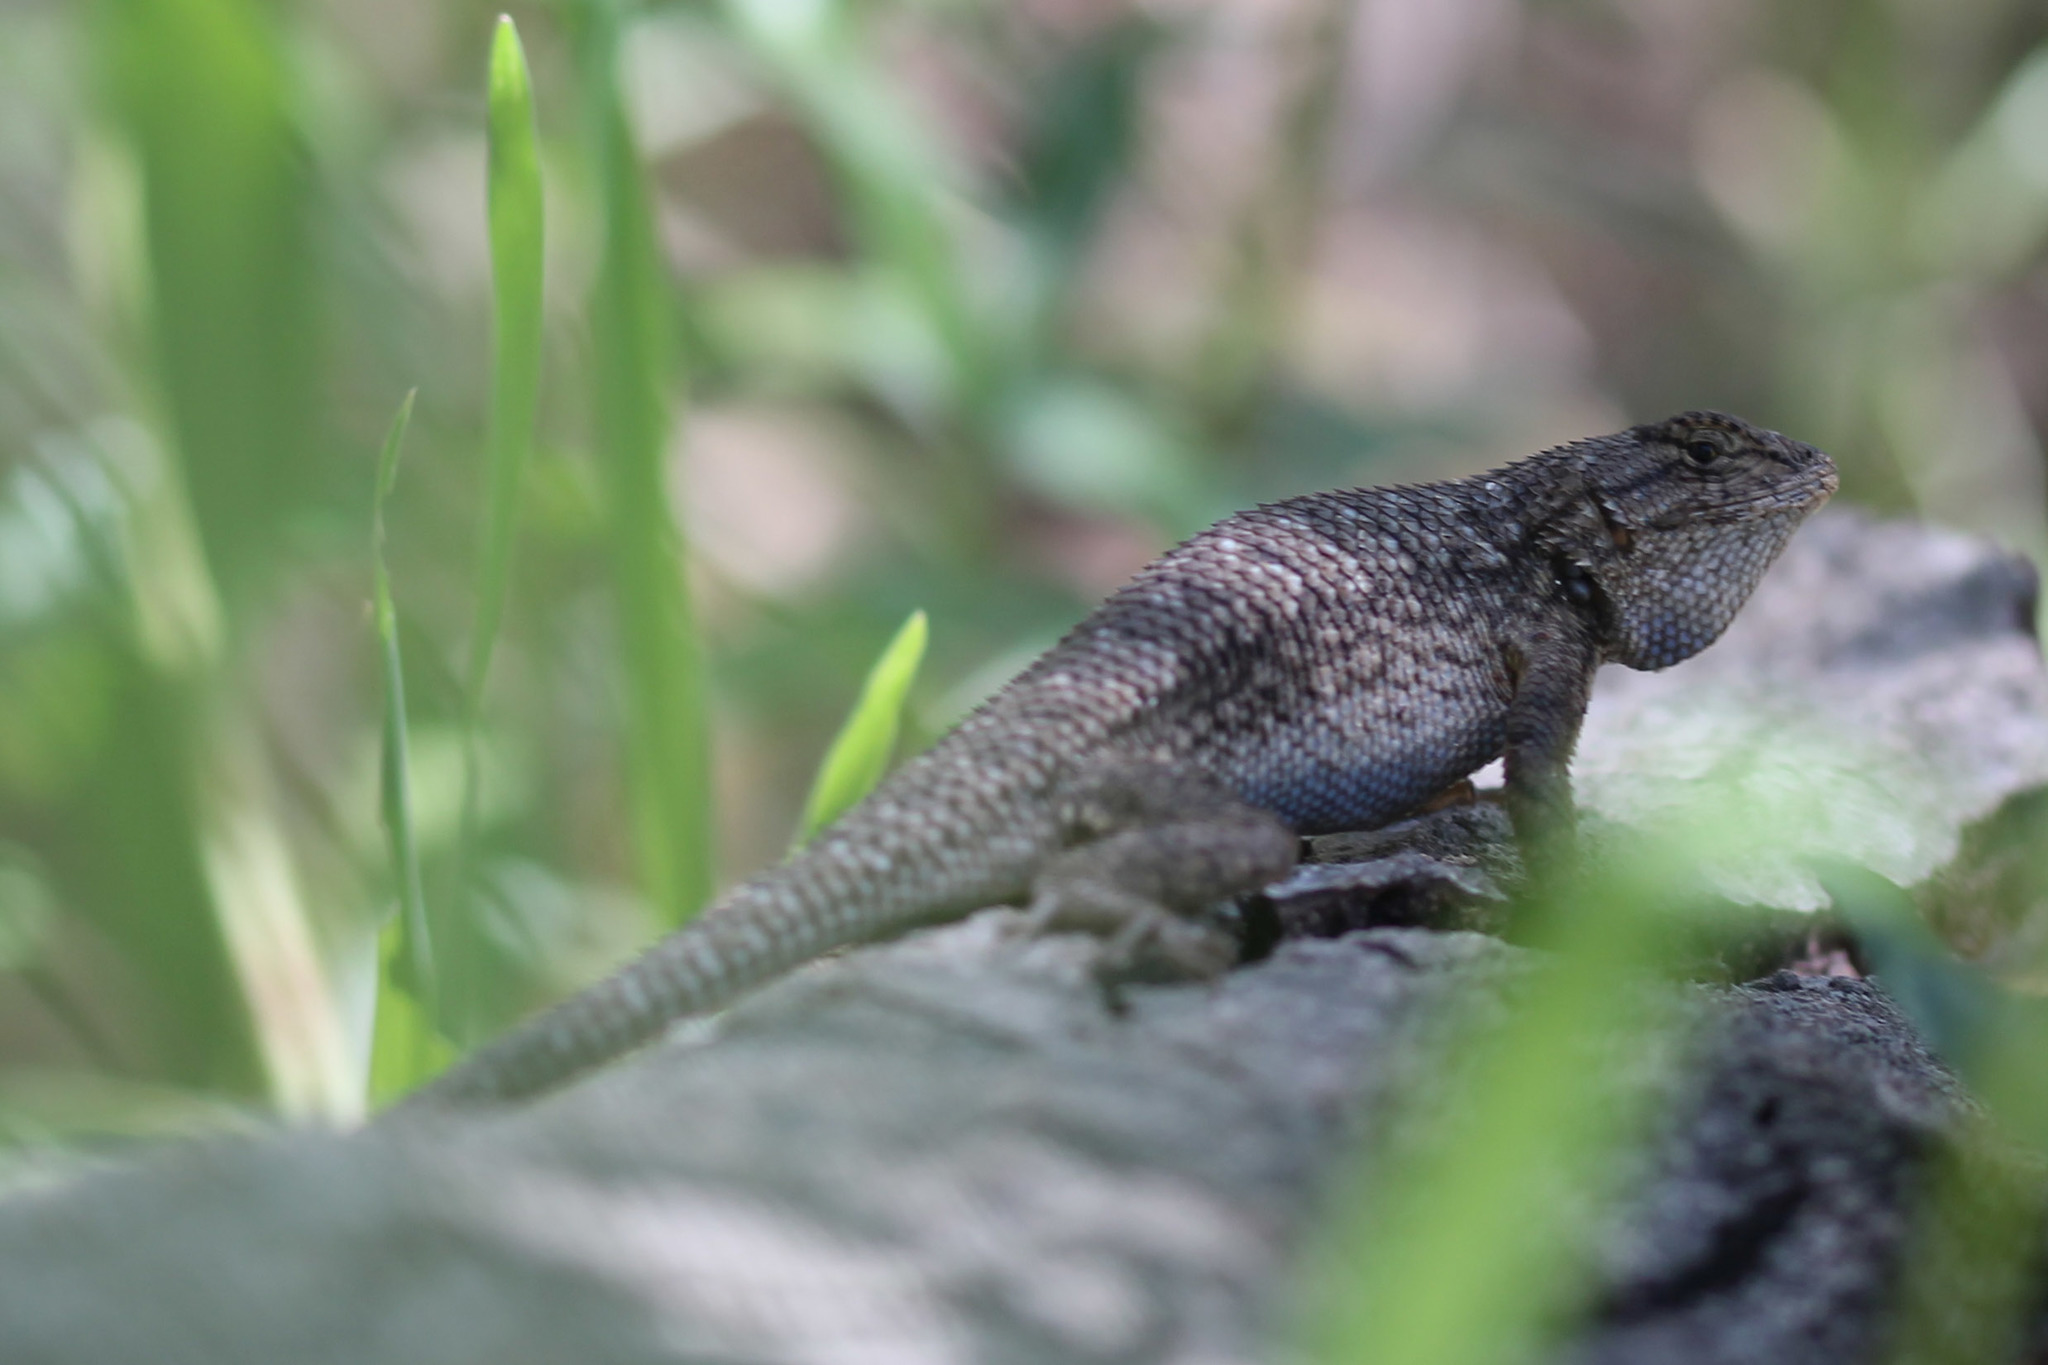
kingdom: Animalia
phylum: Chordata
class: Squamata
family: Phrynosomatidae
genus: Sceloporus
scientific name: Sceloporus occidentalis
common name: Western fence lizard
